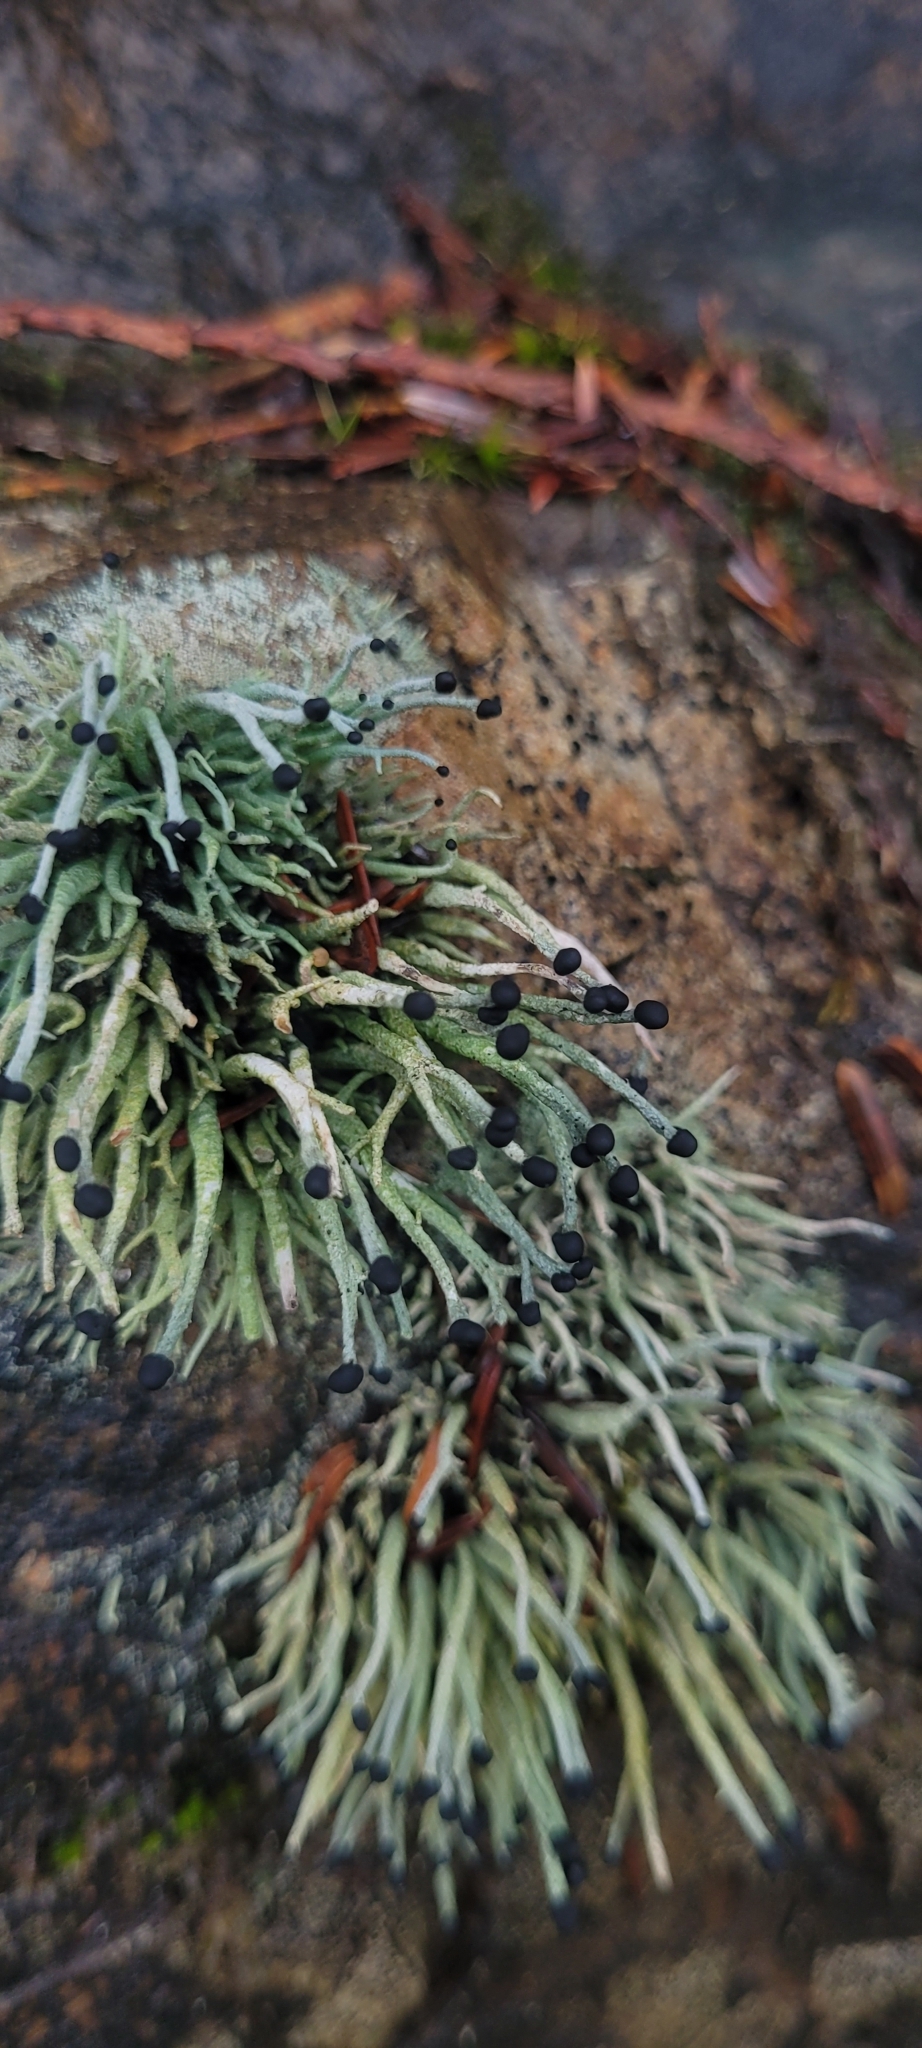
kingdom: Fungi
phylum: Ascomycota
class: Lecanoromycetes
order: Lecanorales
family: Cladoniaceae
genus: Pilophorus
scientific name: Pilophorus acicularis
